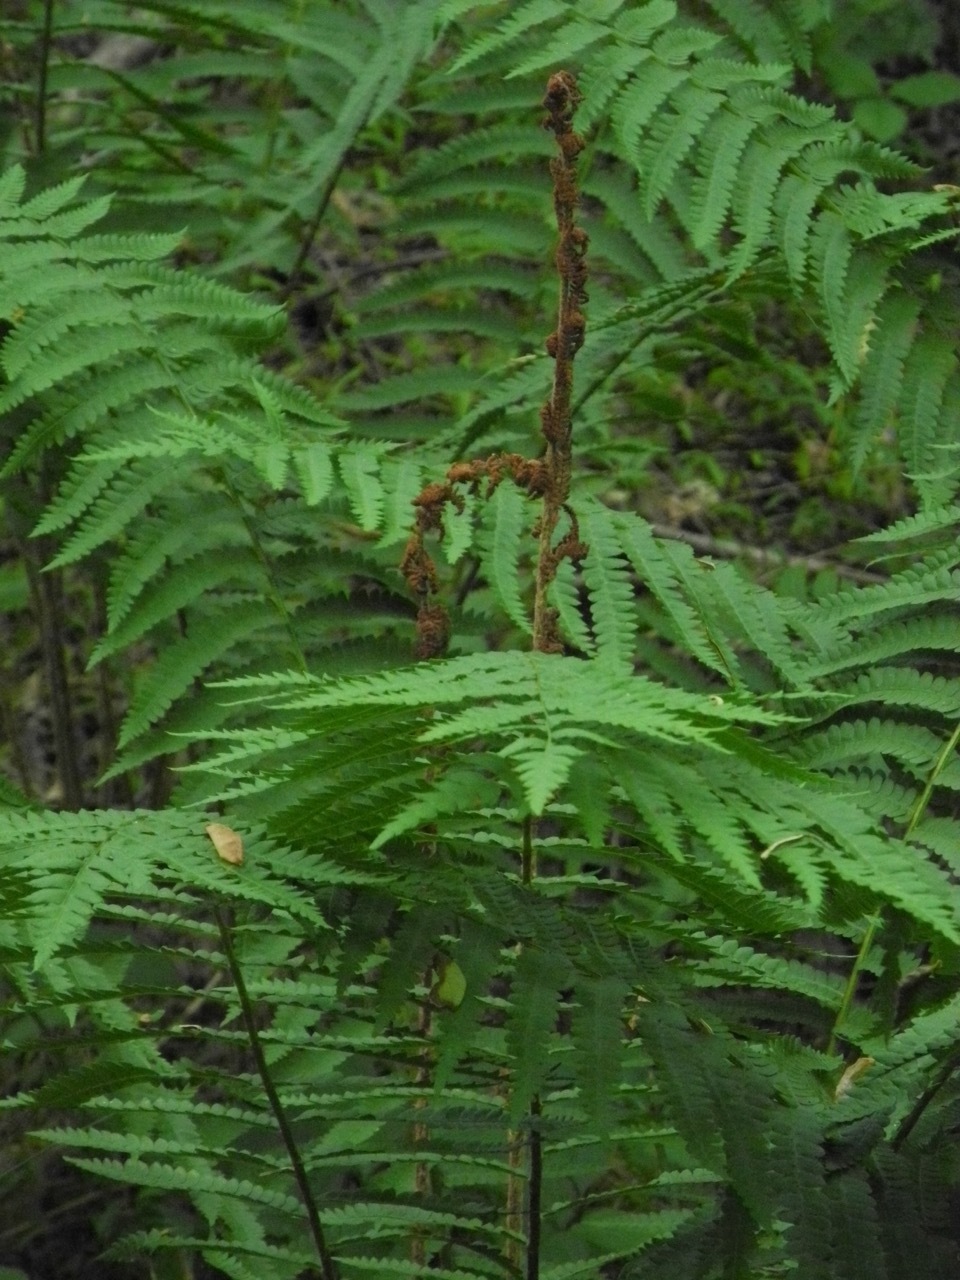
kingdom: Plantae
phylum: Tracheophyta
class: Polypodiopsida
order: Osmundales
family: Osmundaceae
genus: Osmundastrum
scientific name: Osmundastrum cinnamomeum
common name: Cinnamon fern
